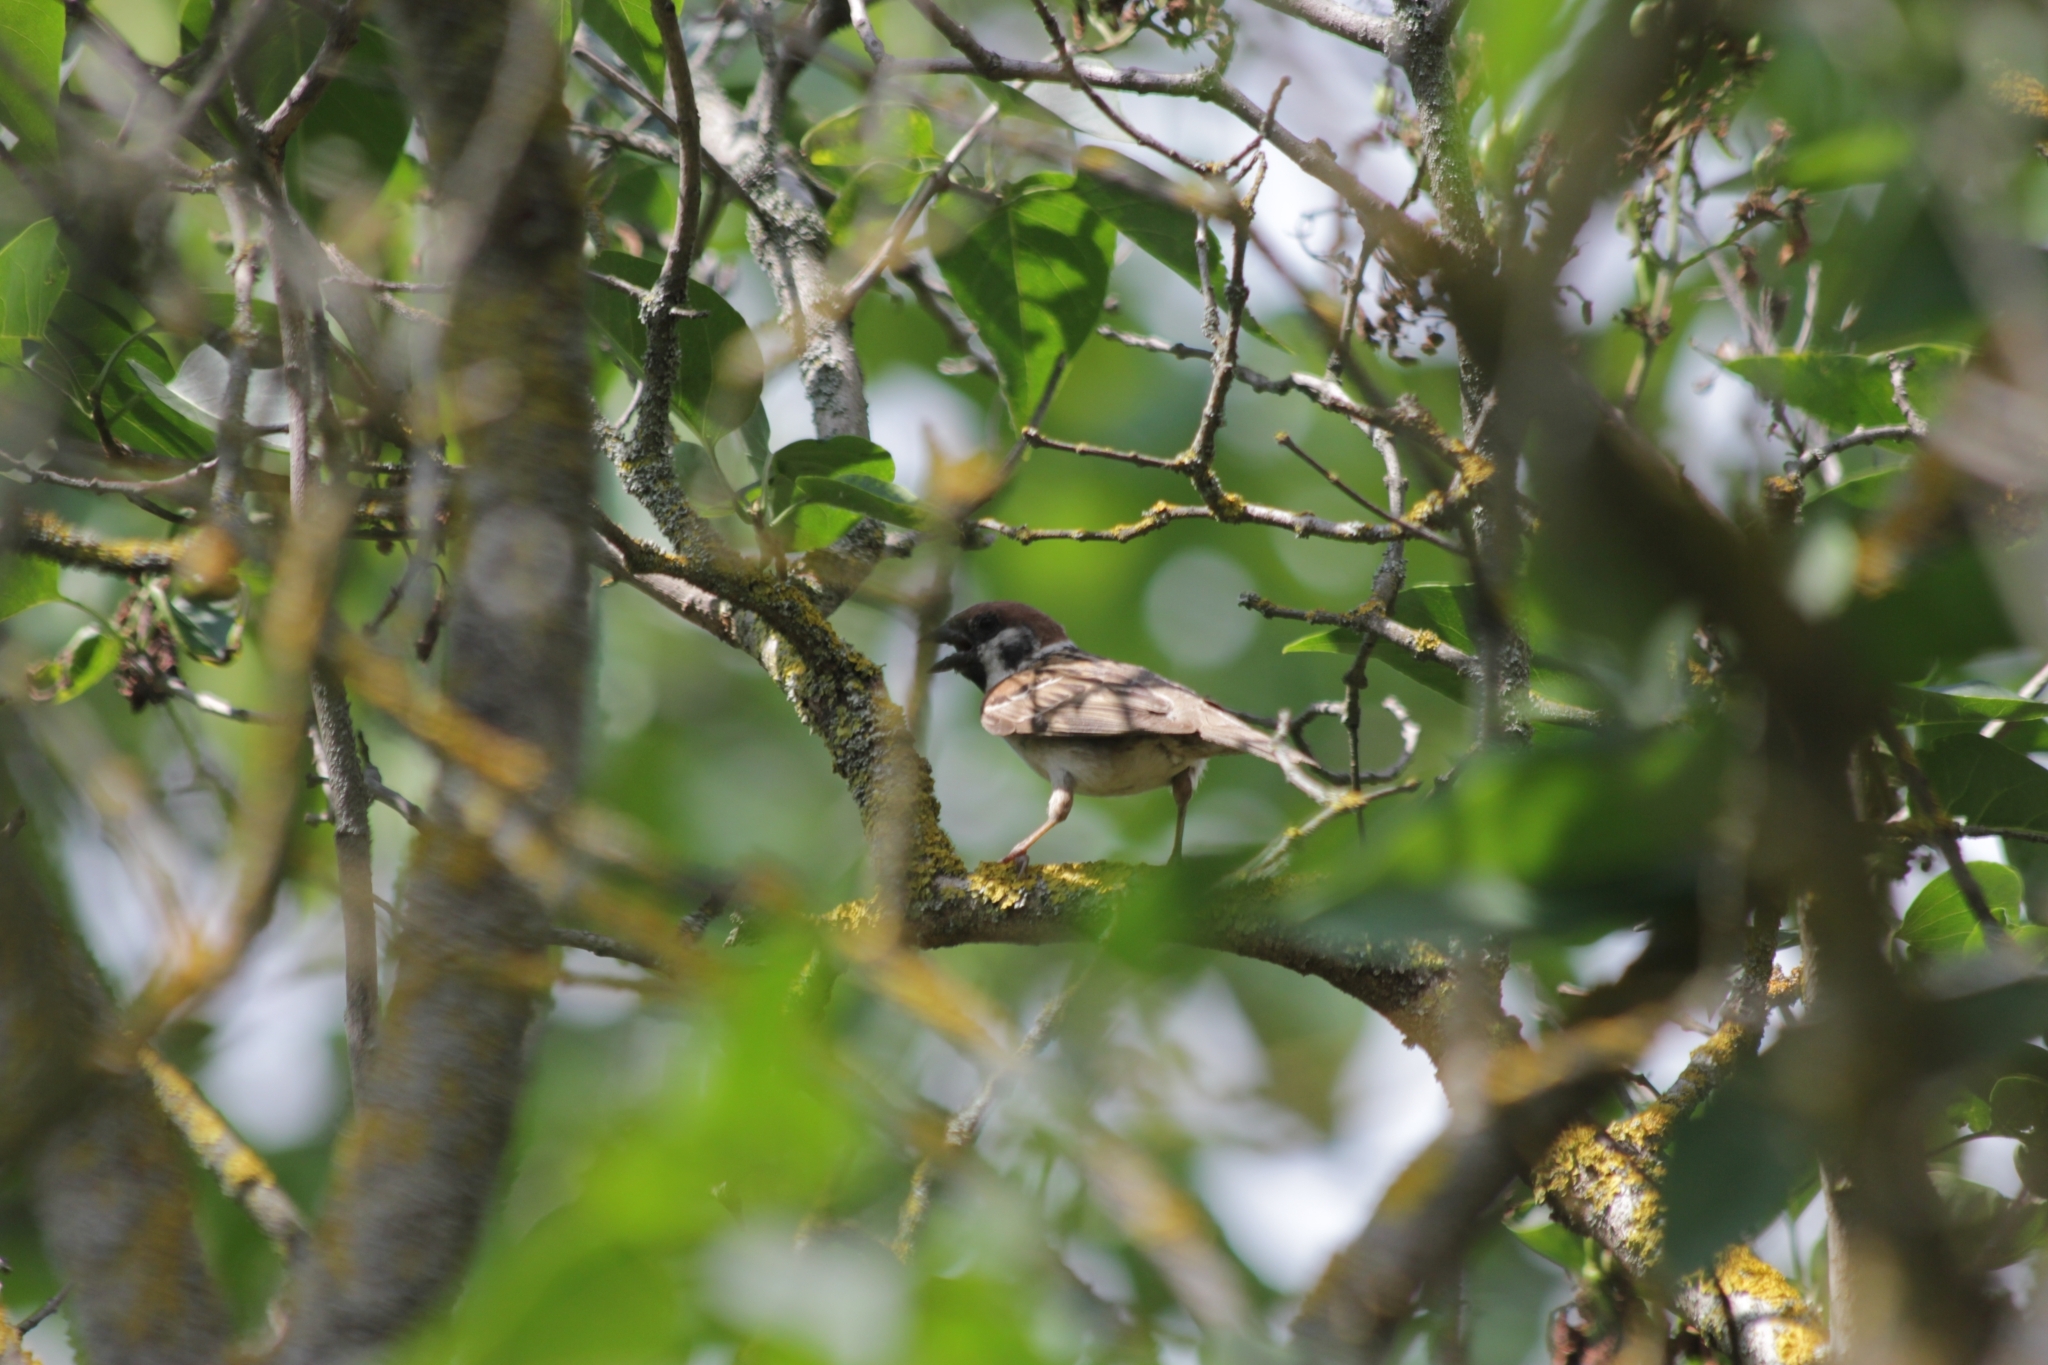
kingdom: Animalia
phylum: Chordata
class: Aves
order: Passeriformes
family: Passeridae
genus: Passer
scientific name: Passer montanus
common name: Eurasian tree sparrow
